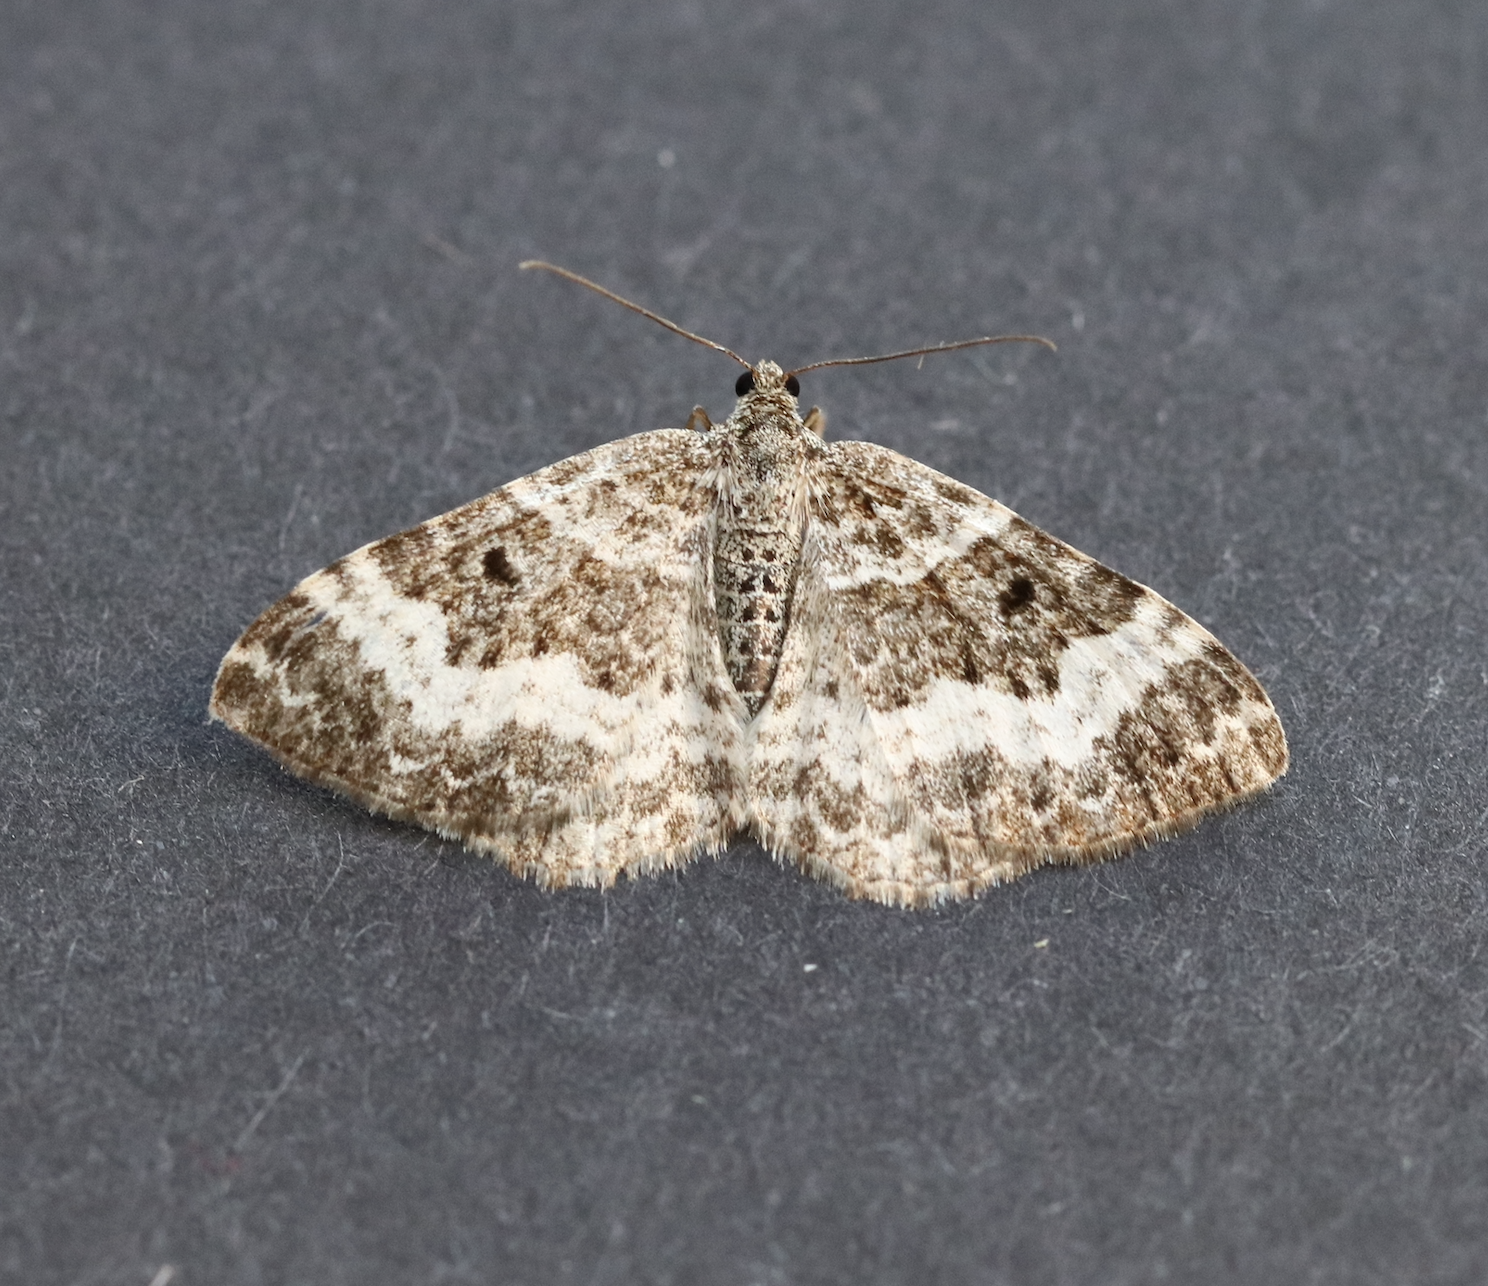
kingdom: Animalia
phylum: Arthropoda
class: Insecta
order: Lepidoptera
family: Geometridae
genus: Epirrhoe
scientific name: Epirrhoe alternata
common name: Common carpet
